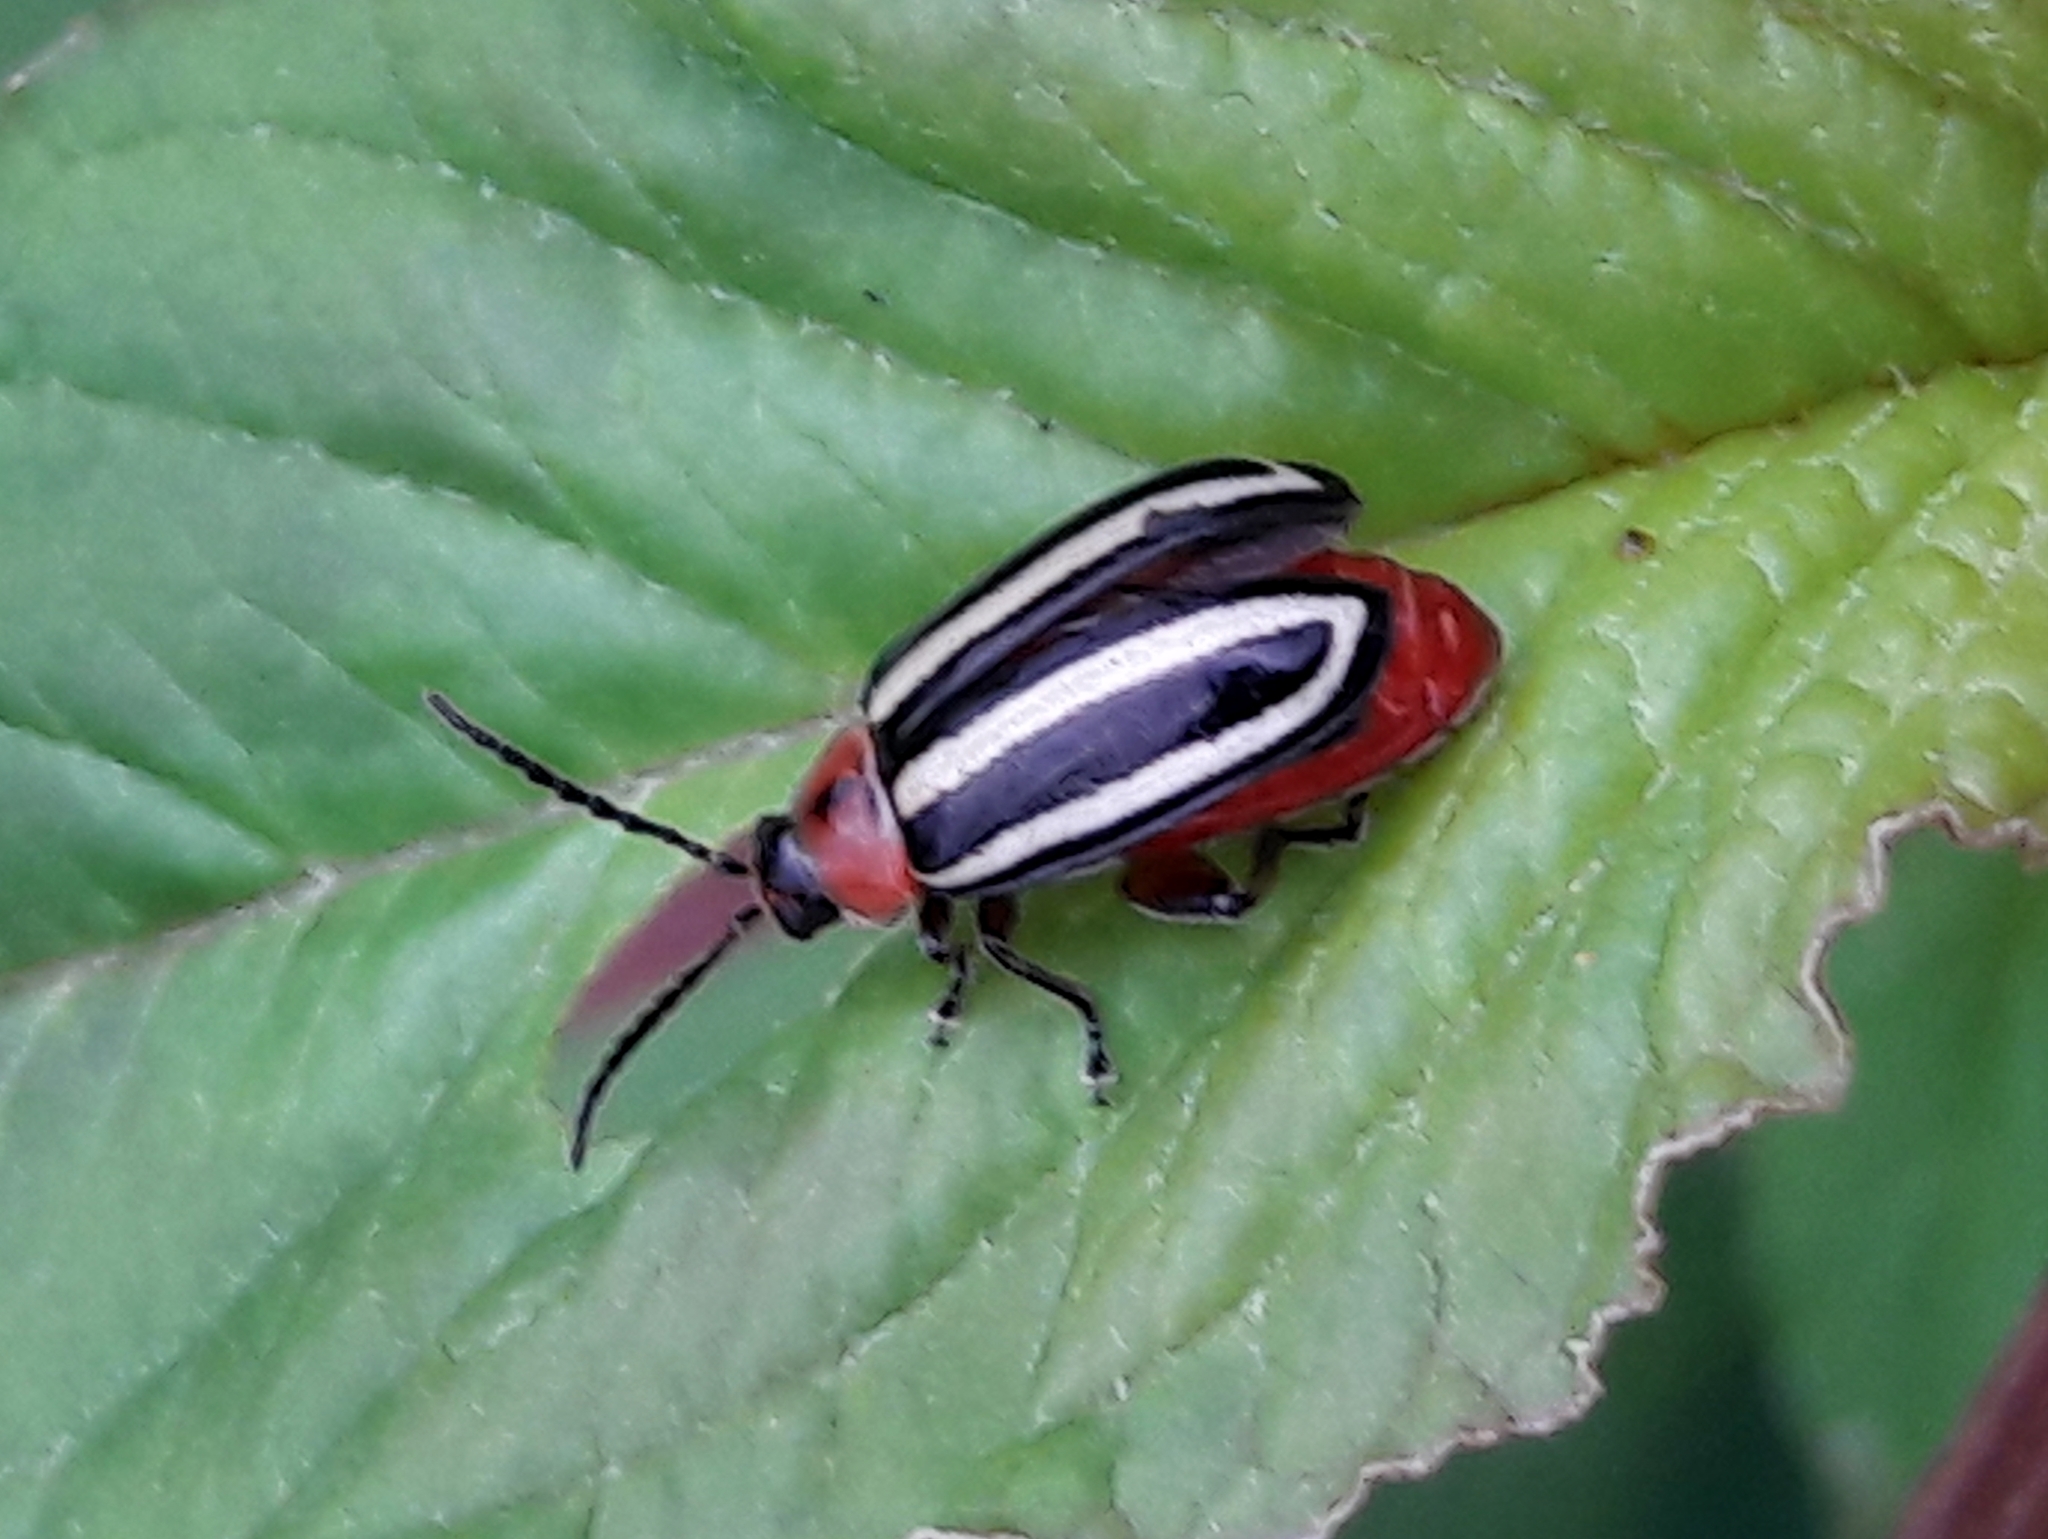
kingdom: Animalia
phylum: Arthropoda
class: Insecta
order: Coleoptera
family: Chrysomelidae
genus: Disonycha
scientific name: Disonycha glabrata
